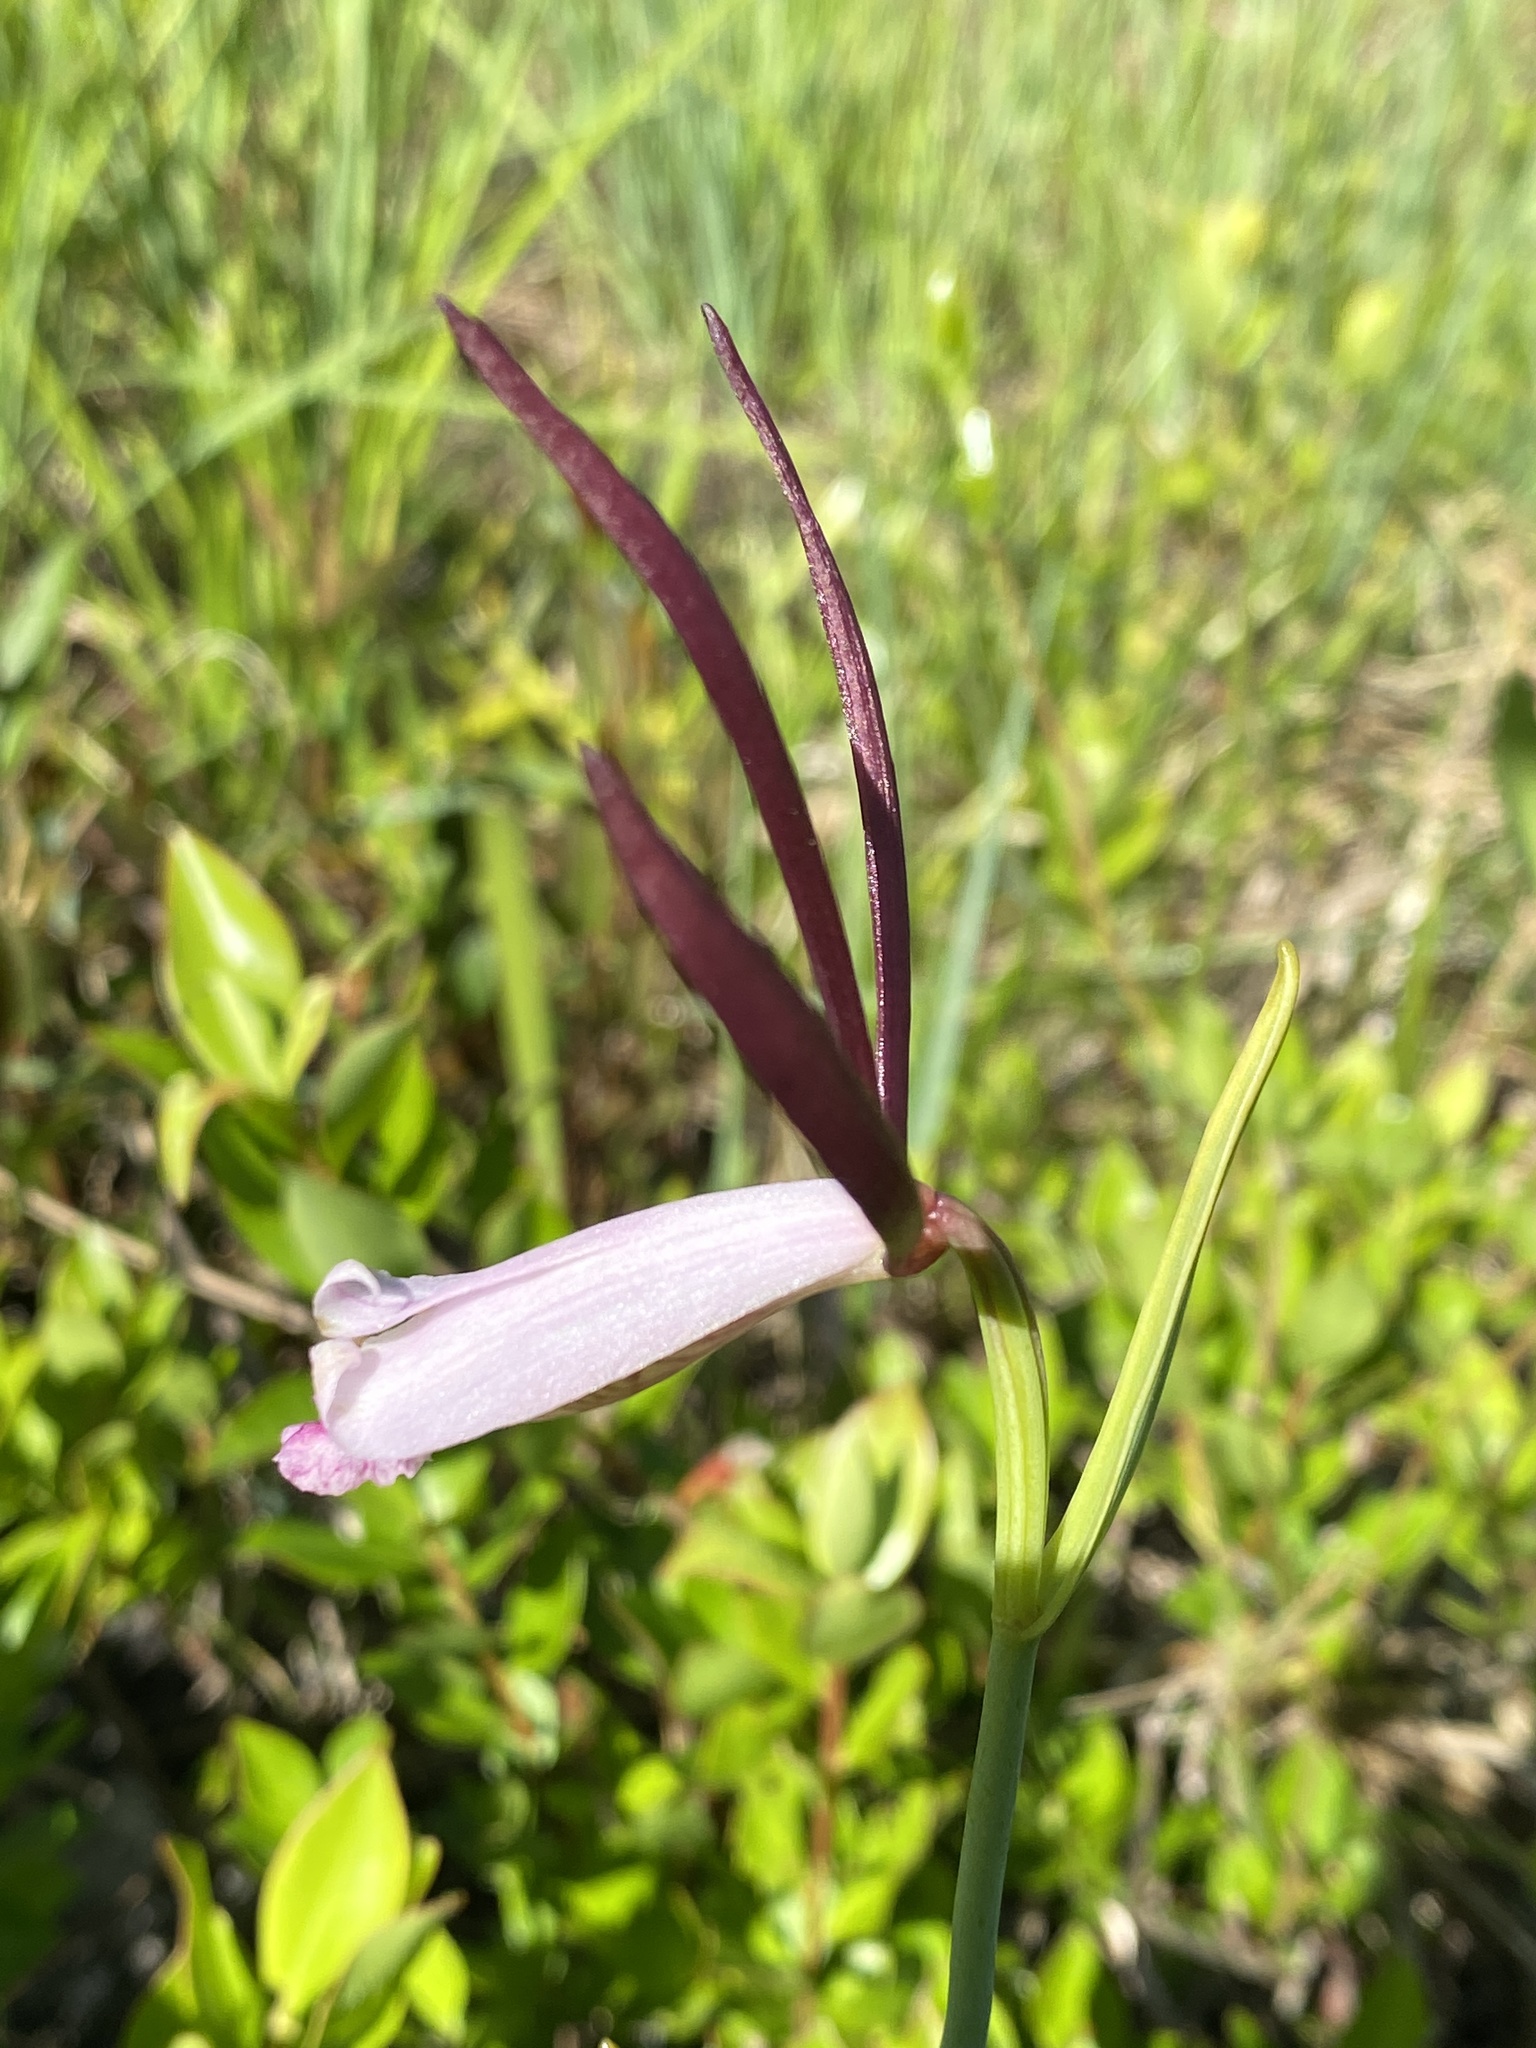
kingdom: Plantae
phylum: Tracheophyta
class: Liliopsida
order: Asparagales
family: Orchidaceae
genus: Cleistesiopsis
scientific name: Cleistesiopsis oricamporum
